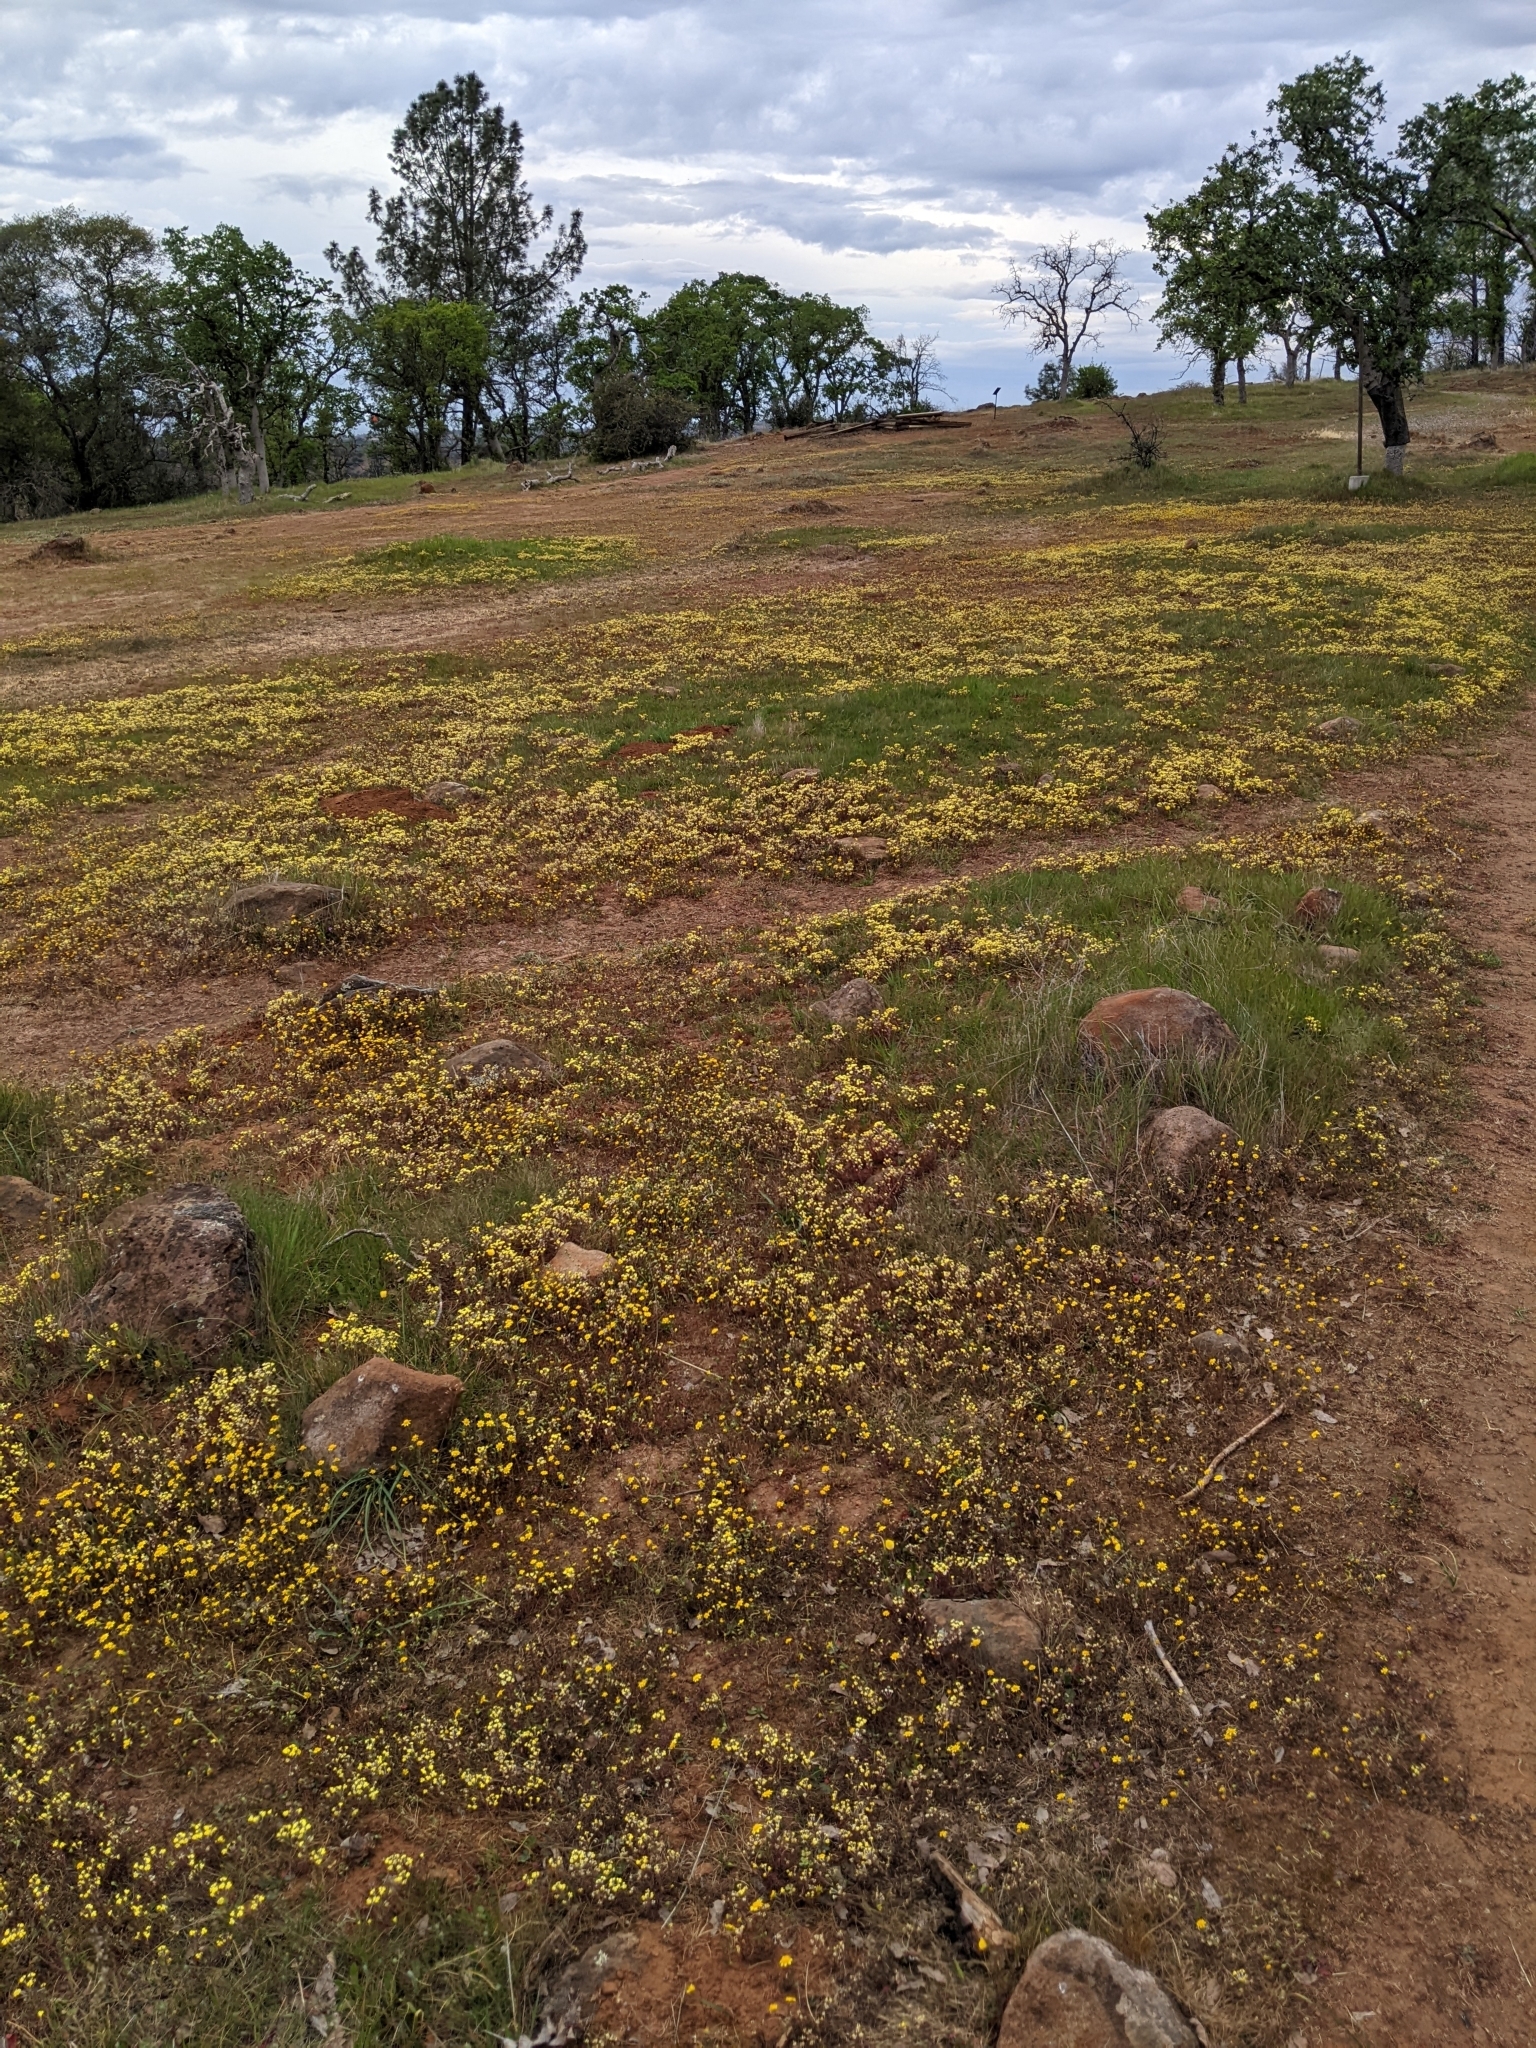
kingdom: Plantae
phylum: Tracheophyta
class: Magnoliopsida
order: Lamiales
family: Orobanchaceae
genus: Triphysaria
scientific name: Triphysaria eriantha
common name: Johnny-tuck
